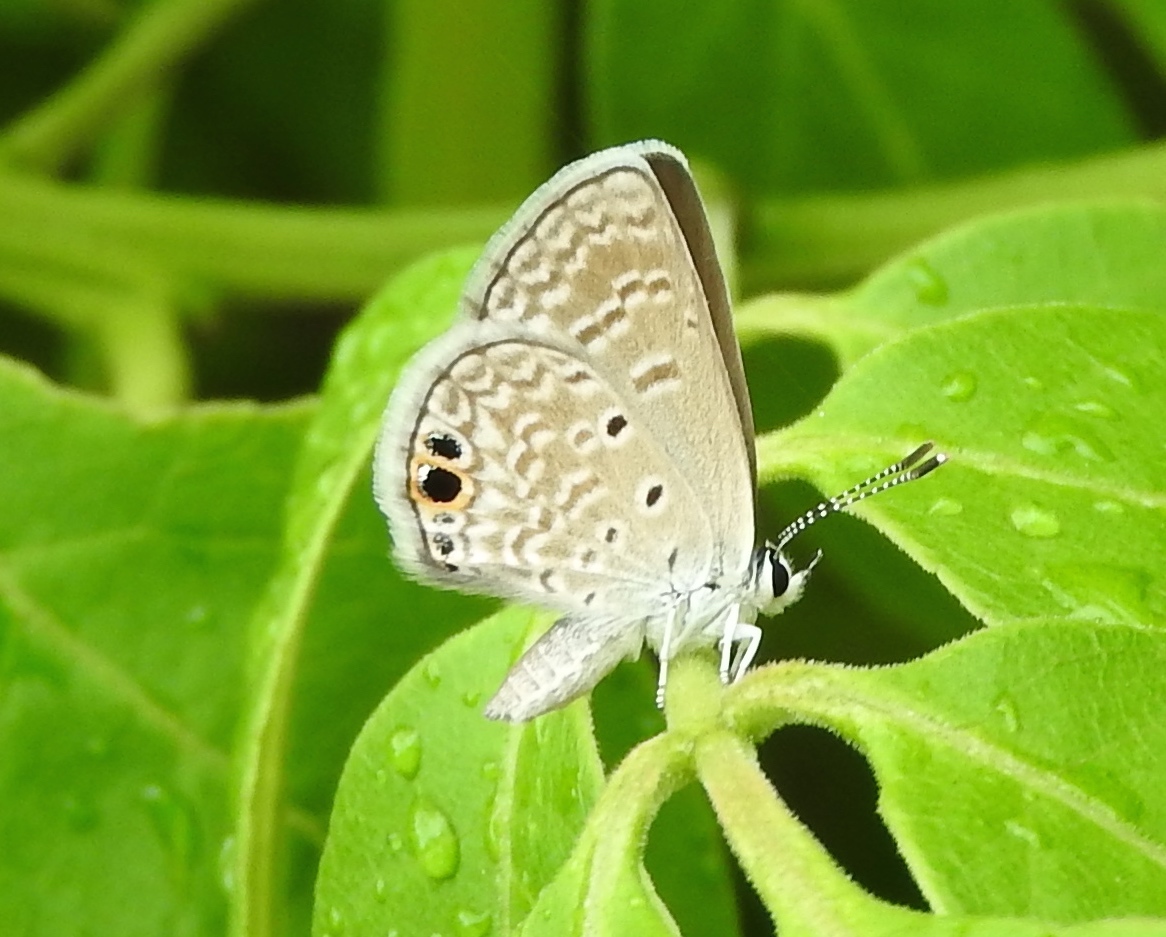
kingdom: Animalia
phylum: Arthropoda
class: Insecta
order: Lepidoptera
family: Lycaenidae
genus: Hemiargus
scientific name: Hemiargus ceraunus
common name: Ceraunus blue
